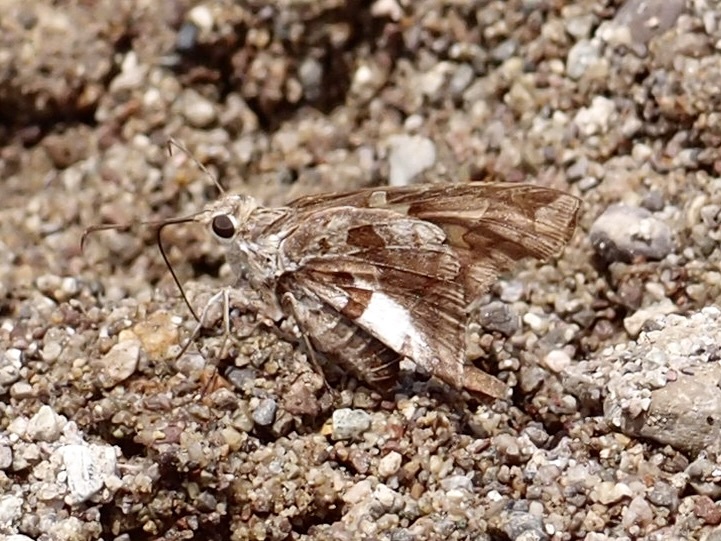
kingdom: Animalia
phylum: Arthropoda
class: Insecta
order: Lepidoptera
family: Hesperiidae
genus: Chioides
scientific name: Chioides zilpa
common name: Zilpa longtail
